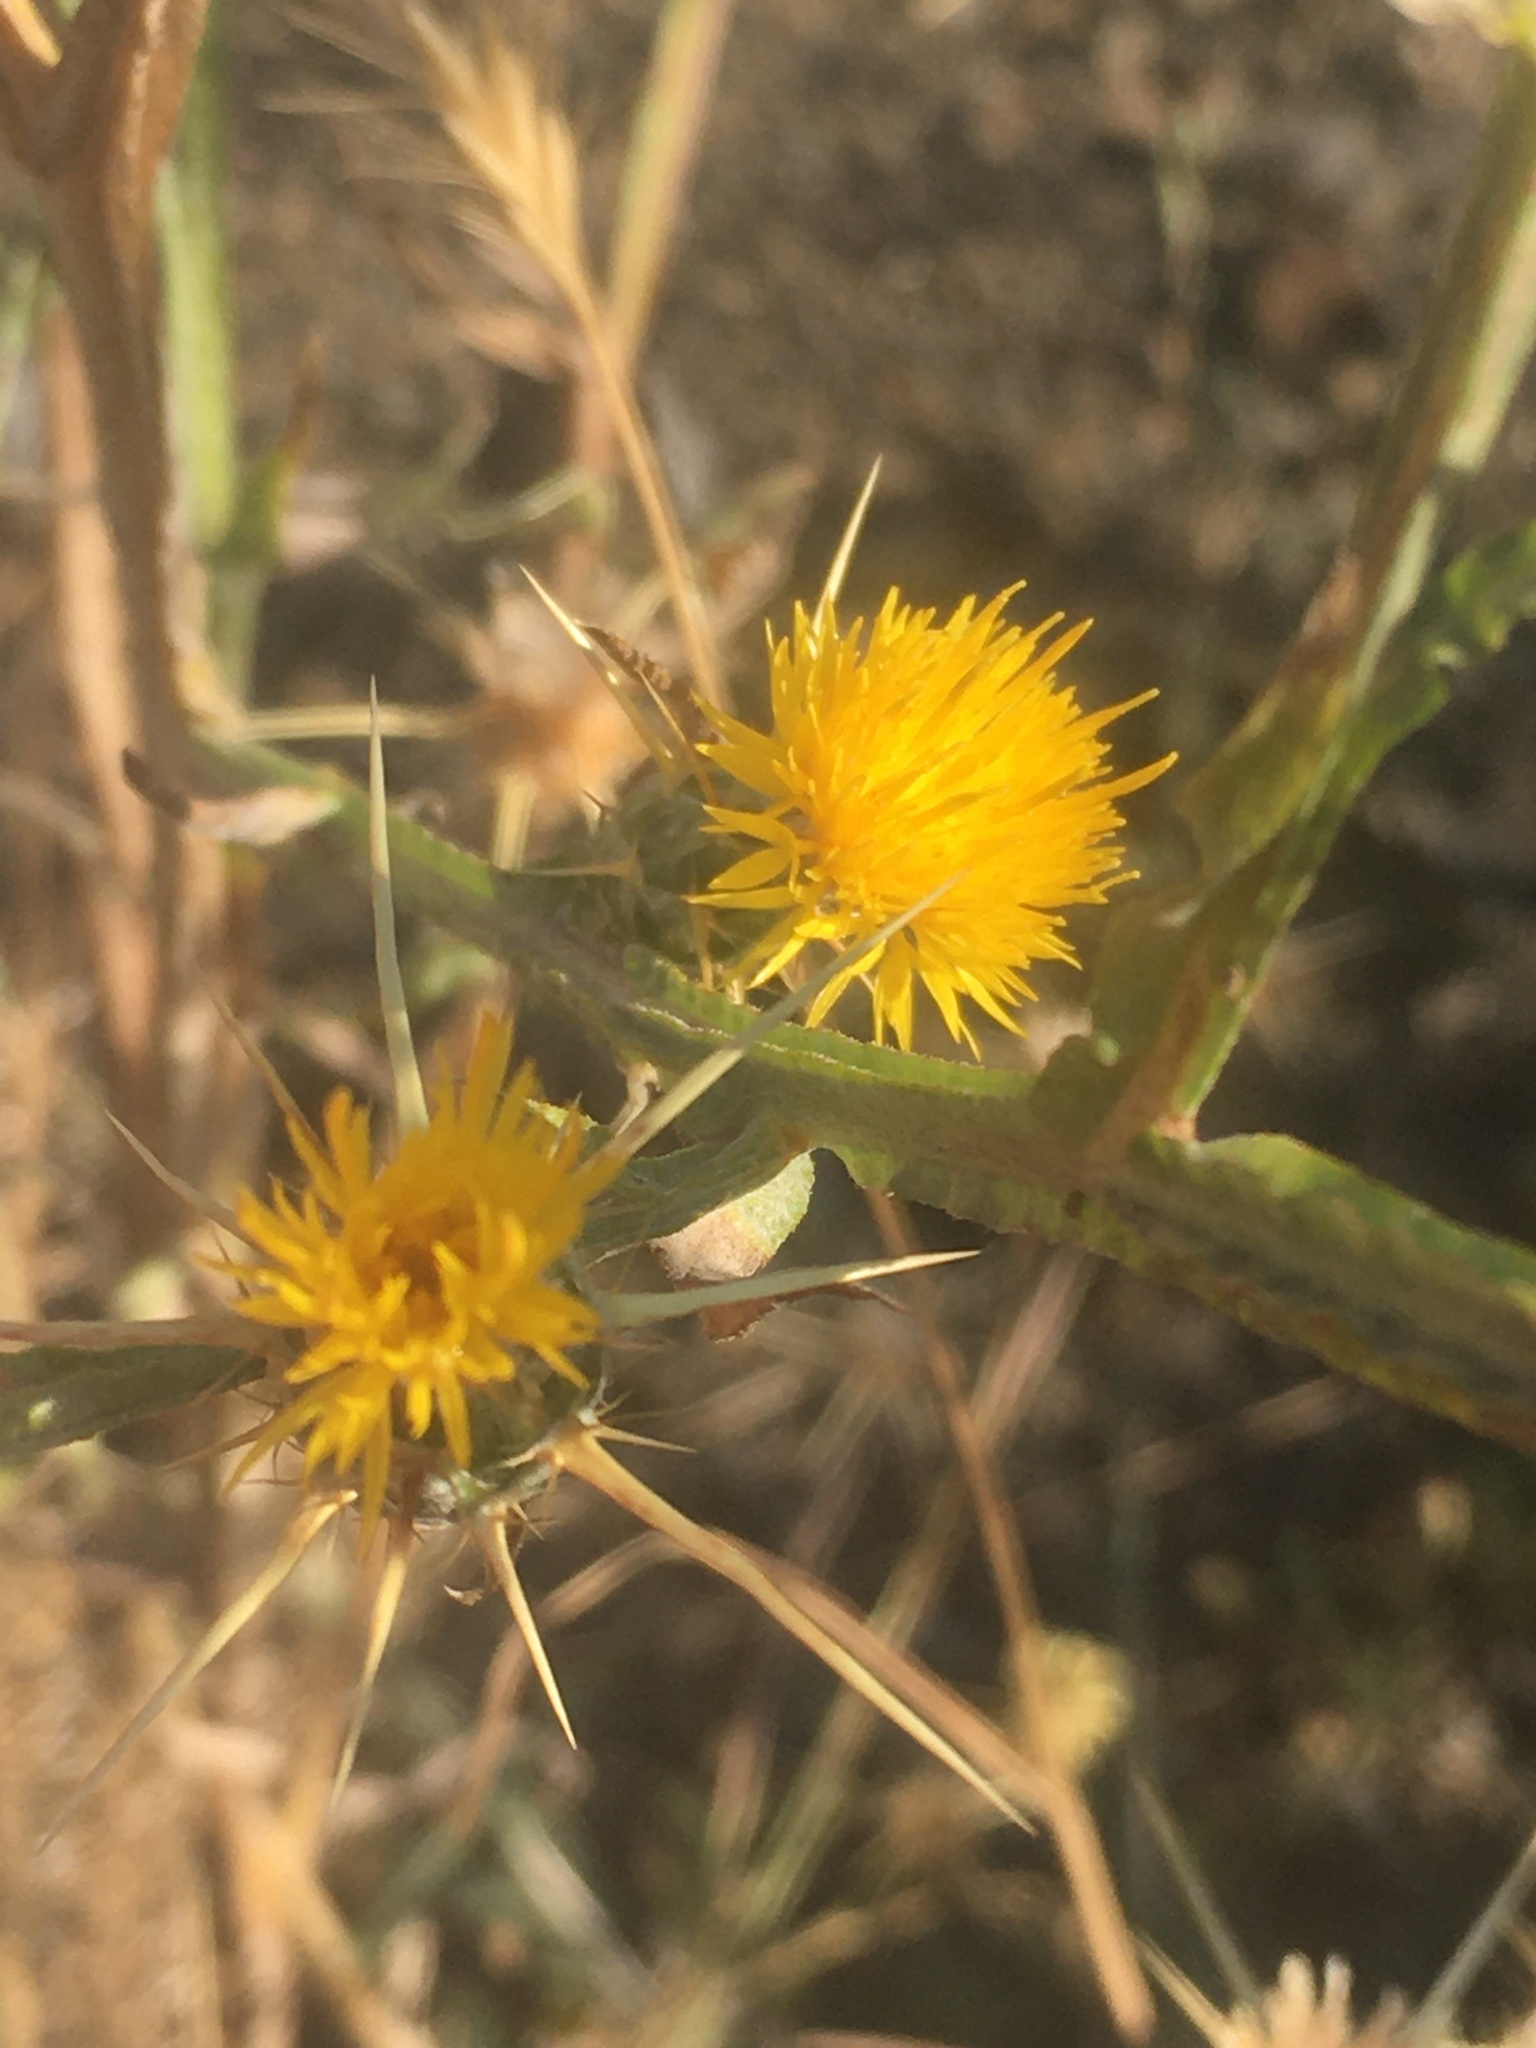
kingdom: Plantae
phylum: Tracheophyta
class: Magnoliopsida
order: Asterales
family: Asteraceae
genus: Centaurea
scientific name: Centaurea solstitialis
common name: Yellow star-thistle
